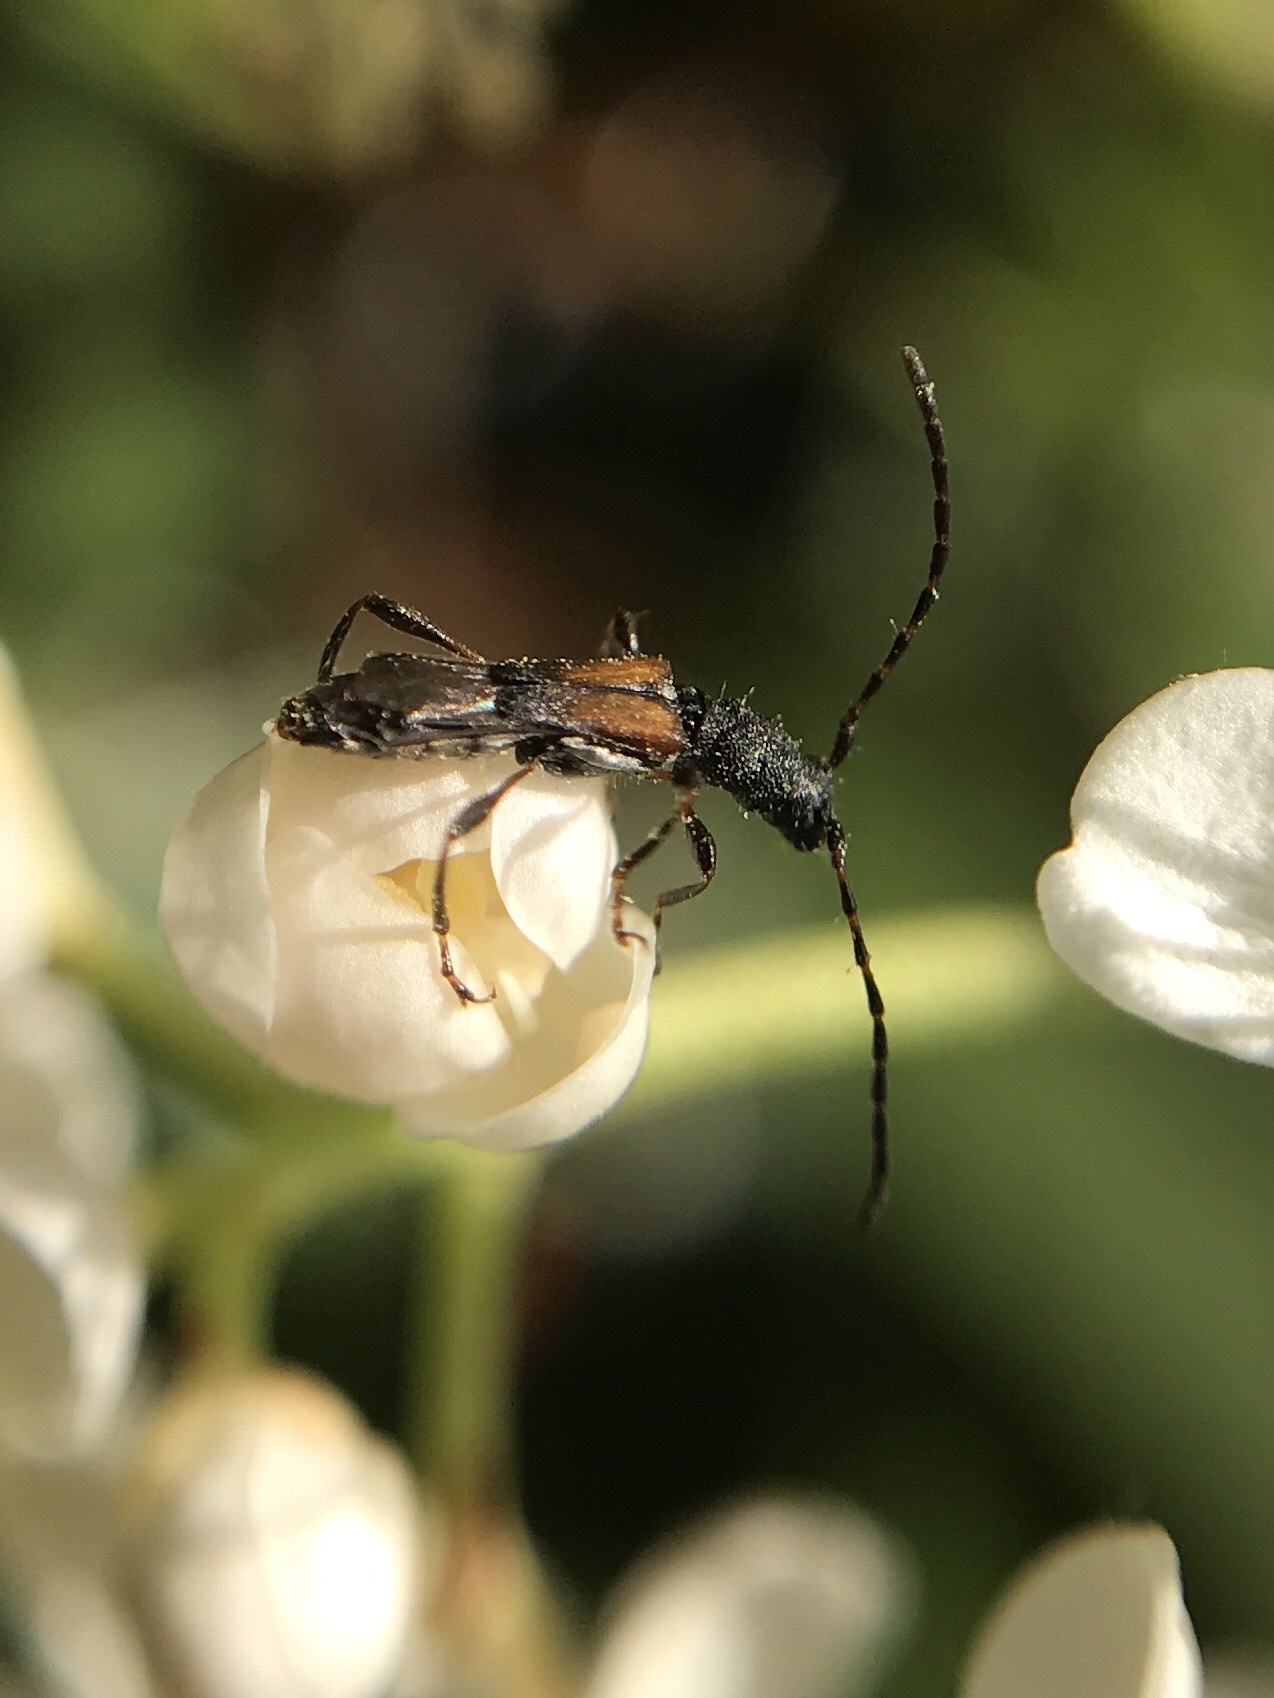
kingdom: Animalia
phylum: Arthropoda
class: Insecta
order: Coleoptera
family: Cerambycidae
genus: Dolocerus
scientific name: Dolocerus reichii
